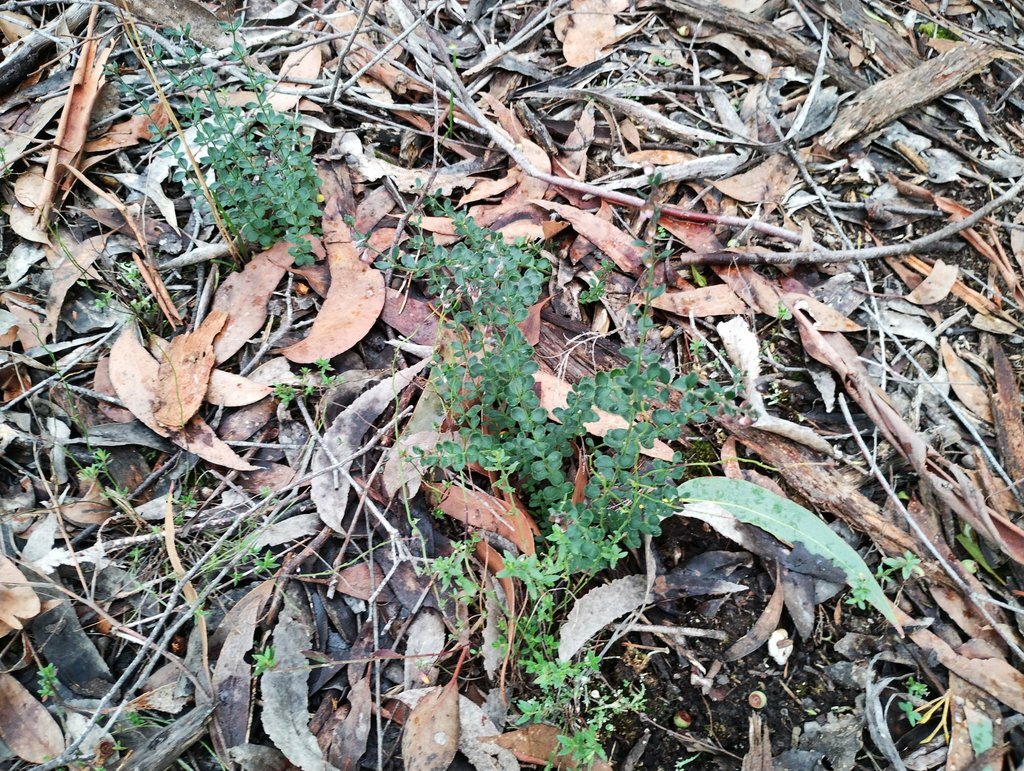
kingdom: Plantae
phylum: Tracheophyta
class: Magnoliopsida
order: Oxalidales
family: Elaeocarpaceae
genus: Tetratheca
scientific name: Tetratheca ciliata
